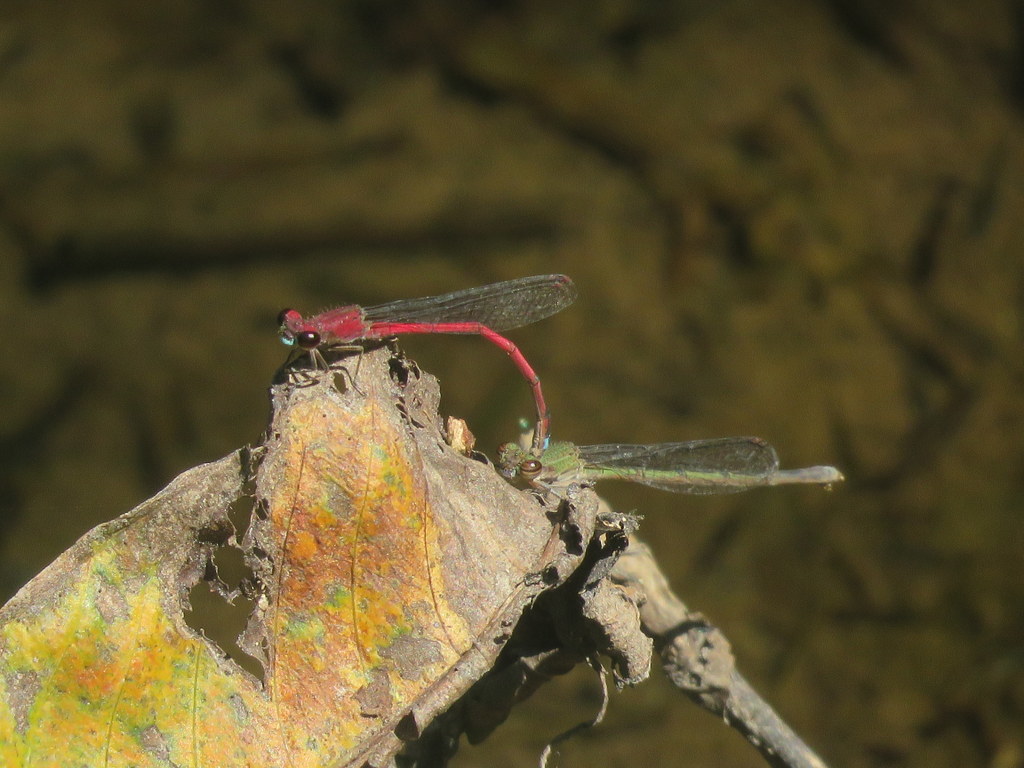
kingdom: Animalia
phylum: Arthropoda
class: Insecta
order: Odonata
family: Coenagrionidae
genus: Oxyagrion
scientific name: Oxyagrion terminale
